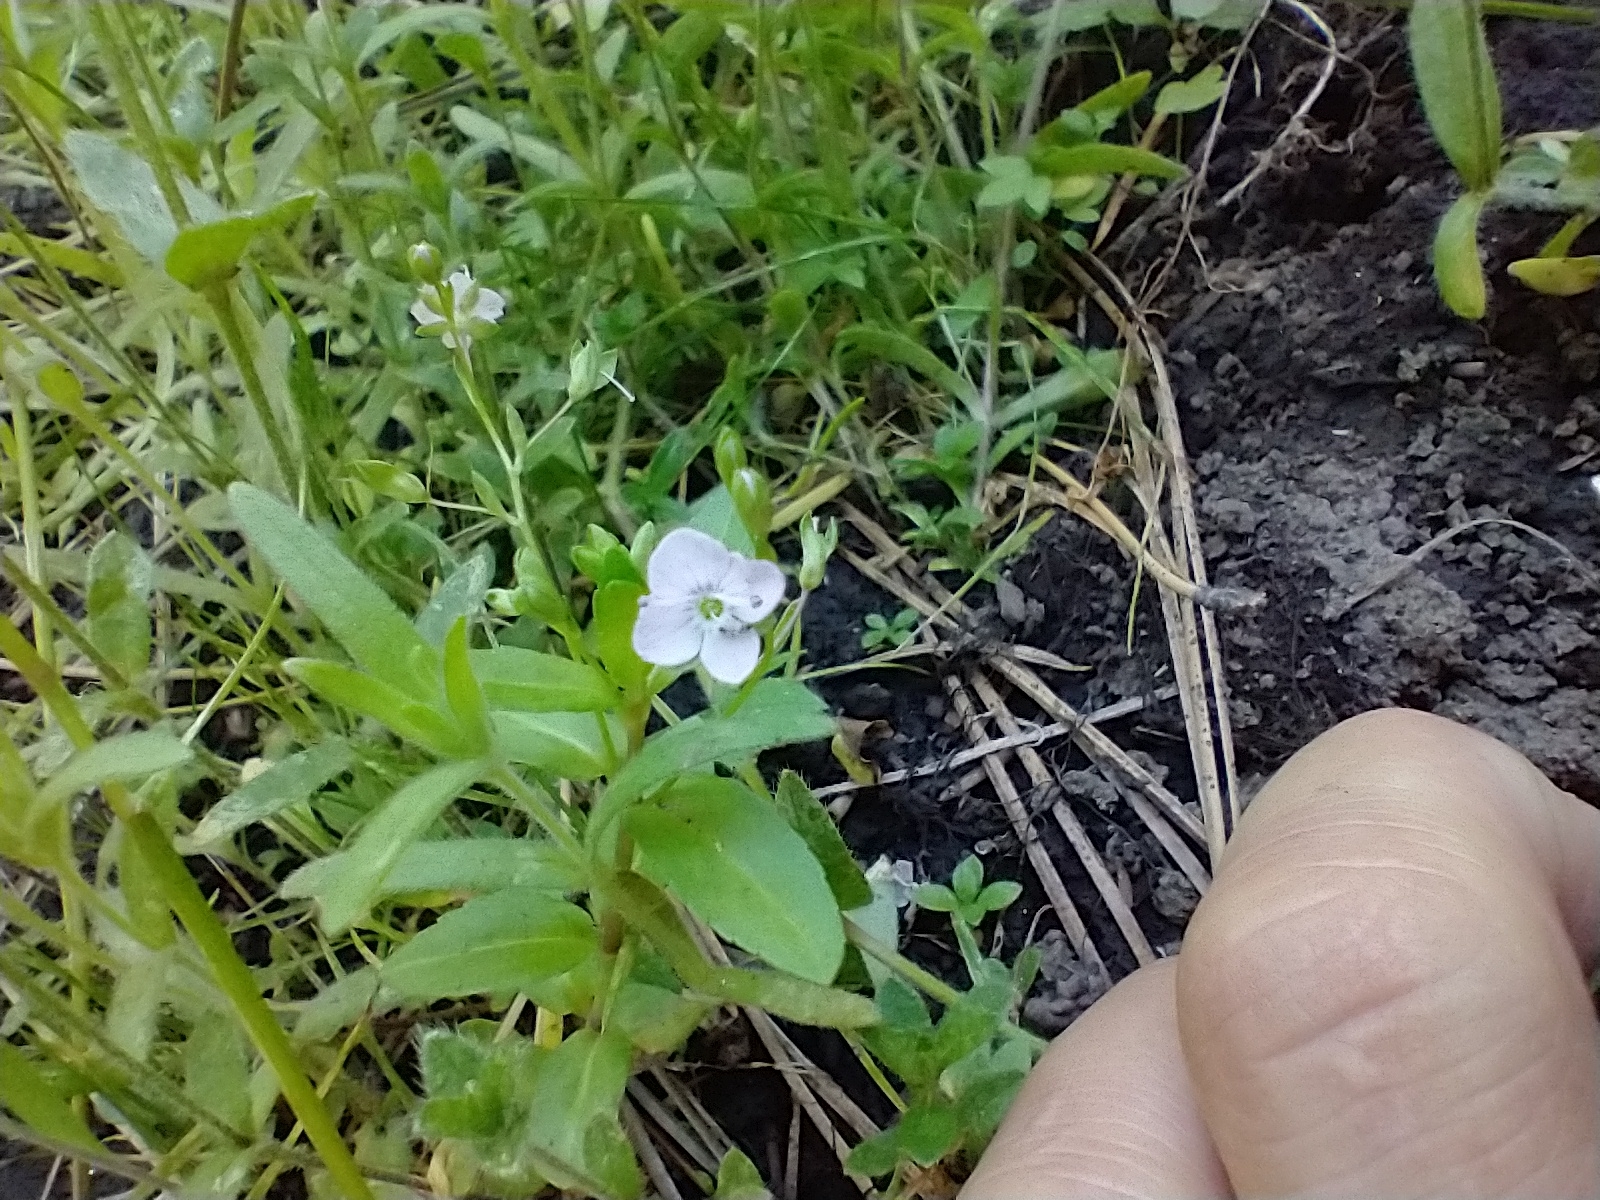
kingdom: Plantae
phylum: Tracheophyta
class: Magnoliopsida
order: Lamiales
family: Plantaginaceae
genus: Veronica
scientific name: Veronica americana
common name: American brooklime
